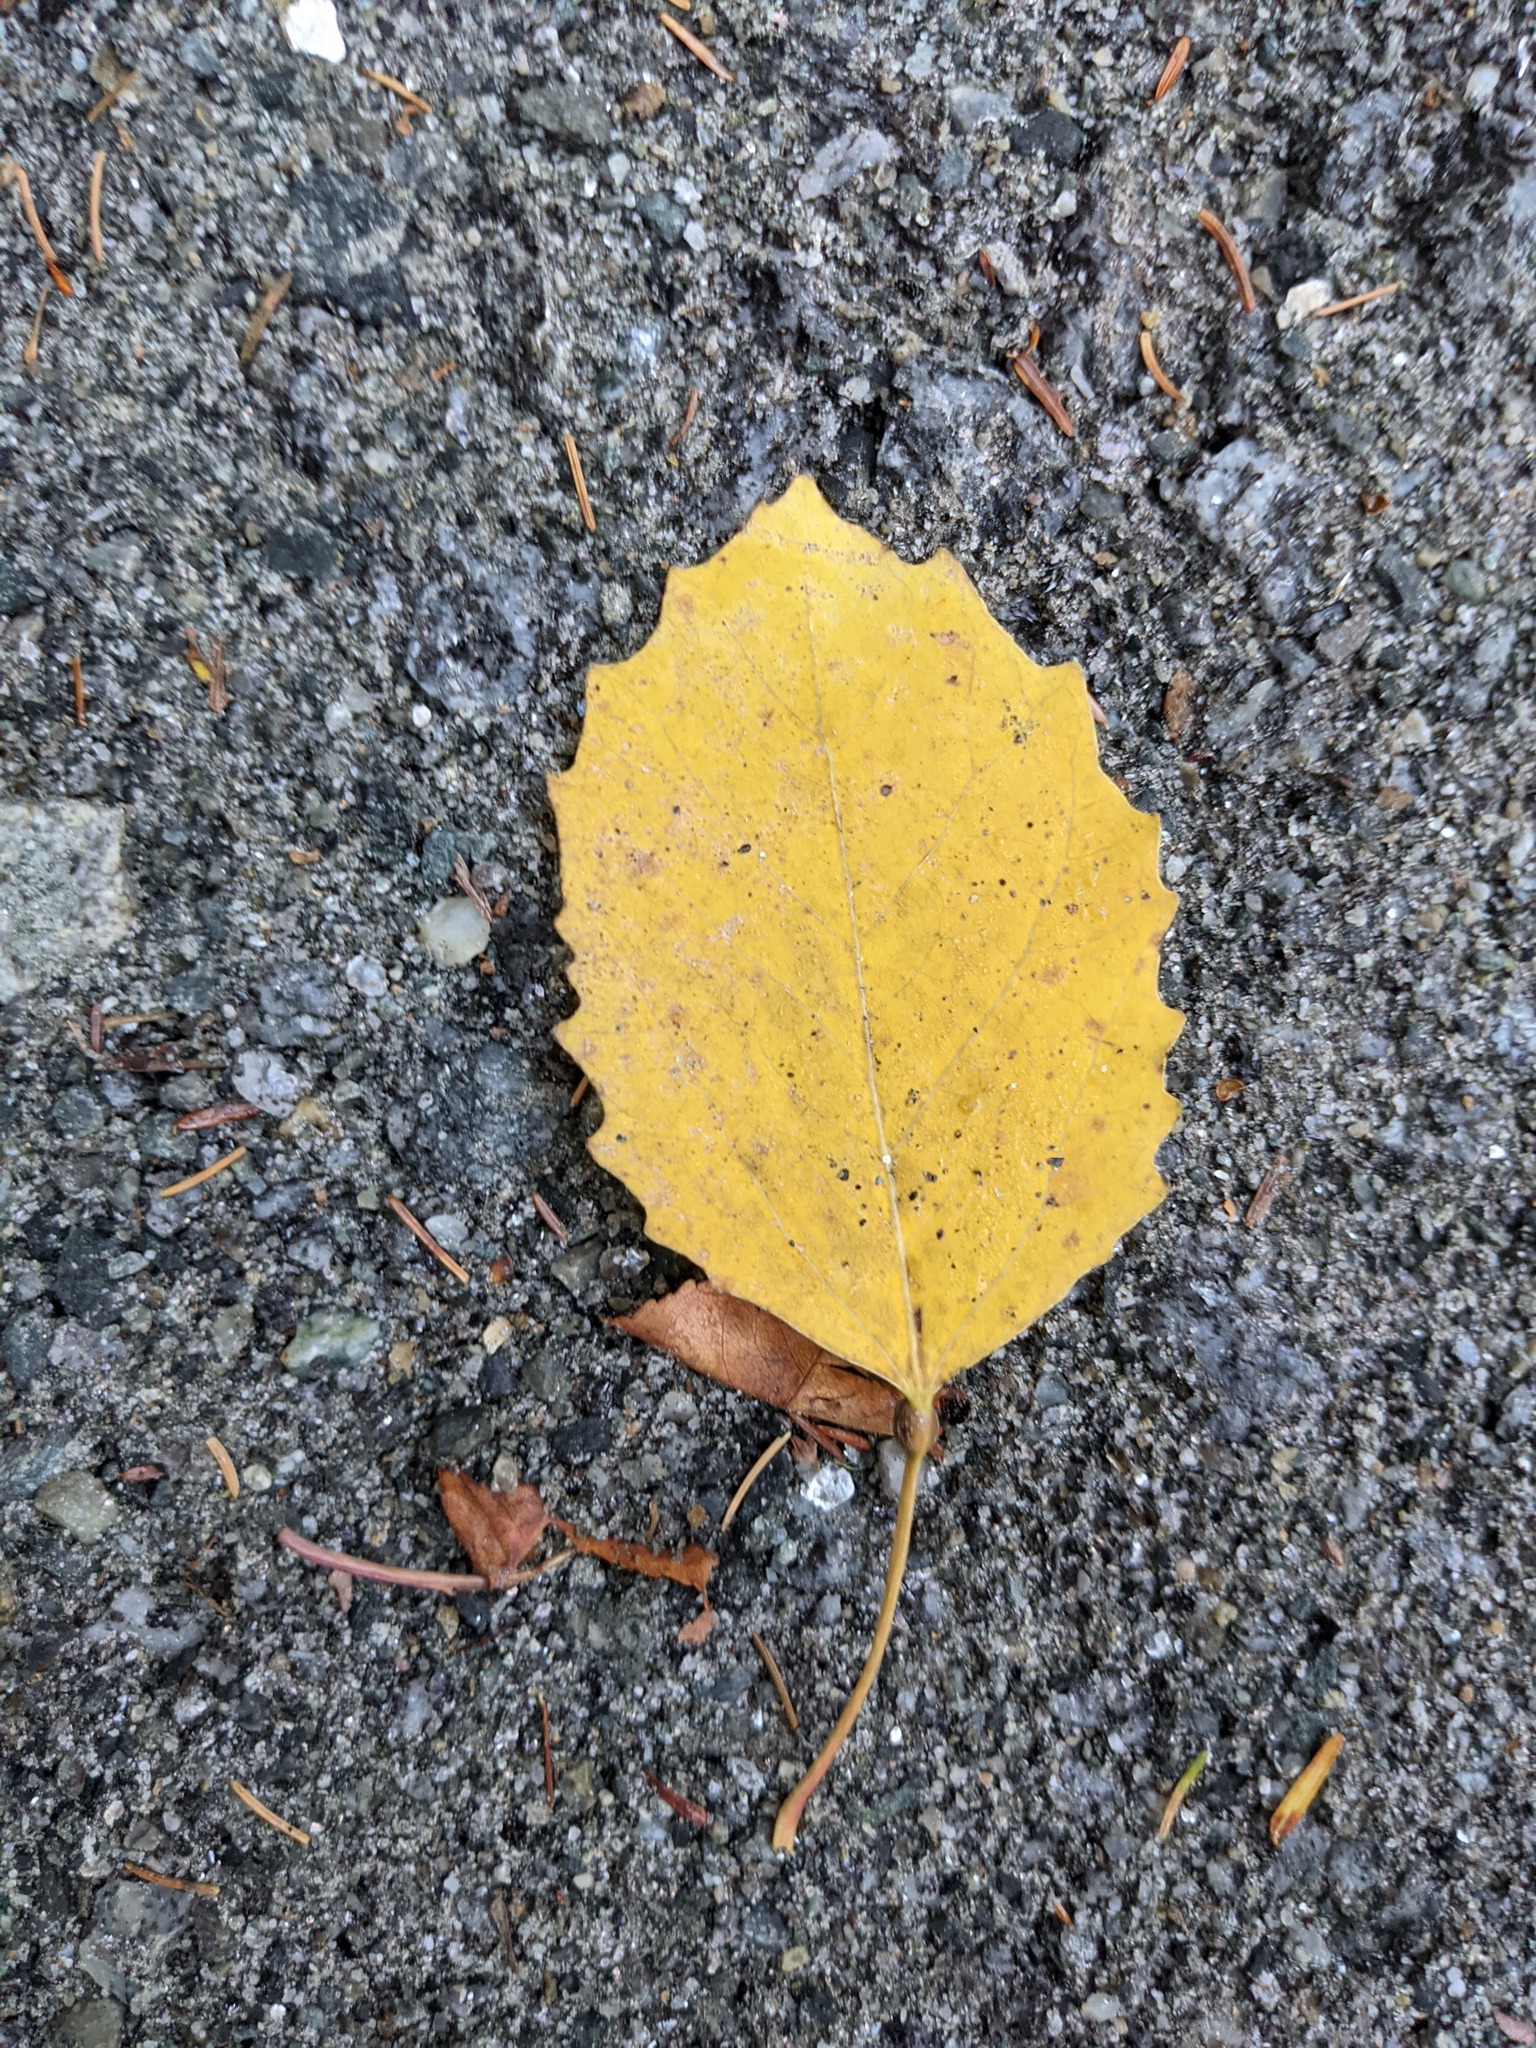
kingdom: Plantae
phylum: Tracheophyta
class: Magnoliopsida
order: Malpighiales
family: Salicaceae
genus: Populus
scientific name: Populus grandidentata
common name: Bigtooth aspen
